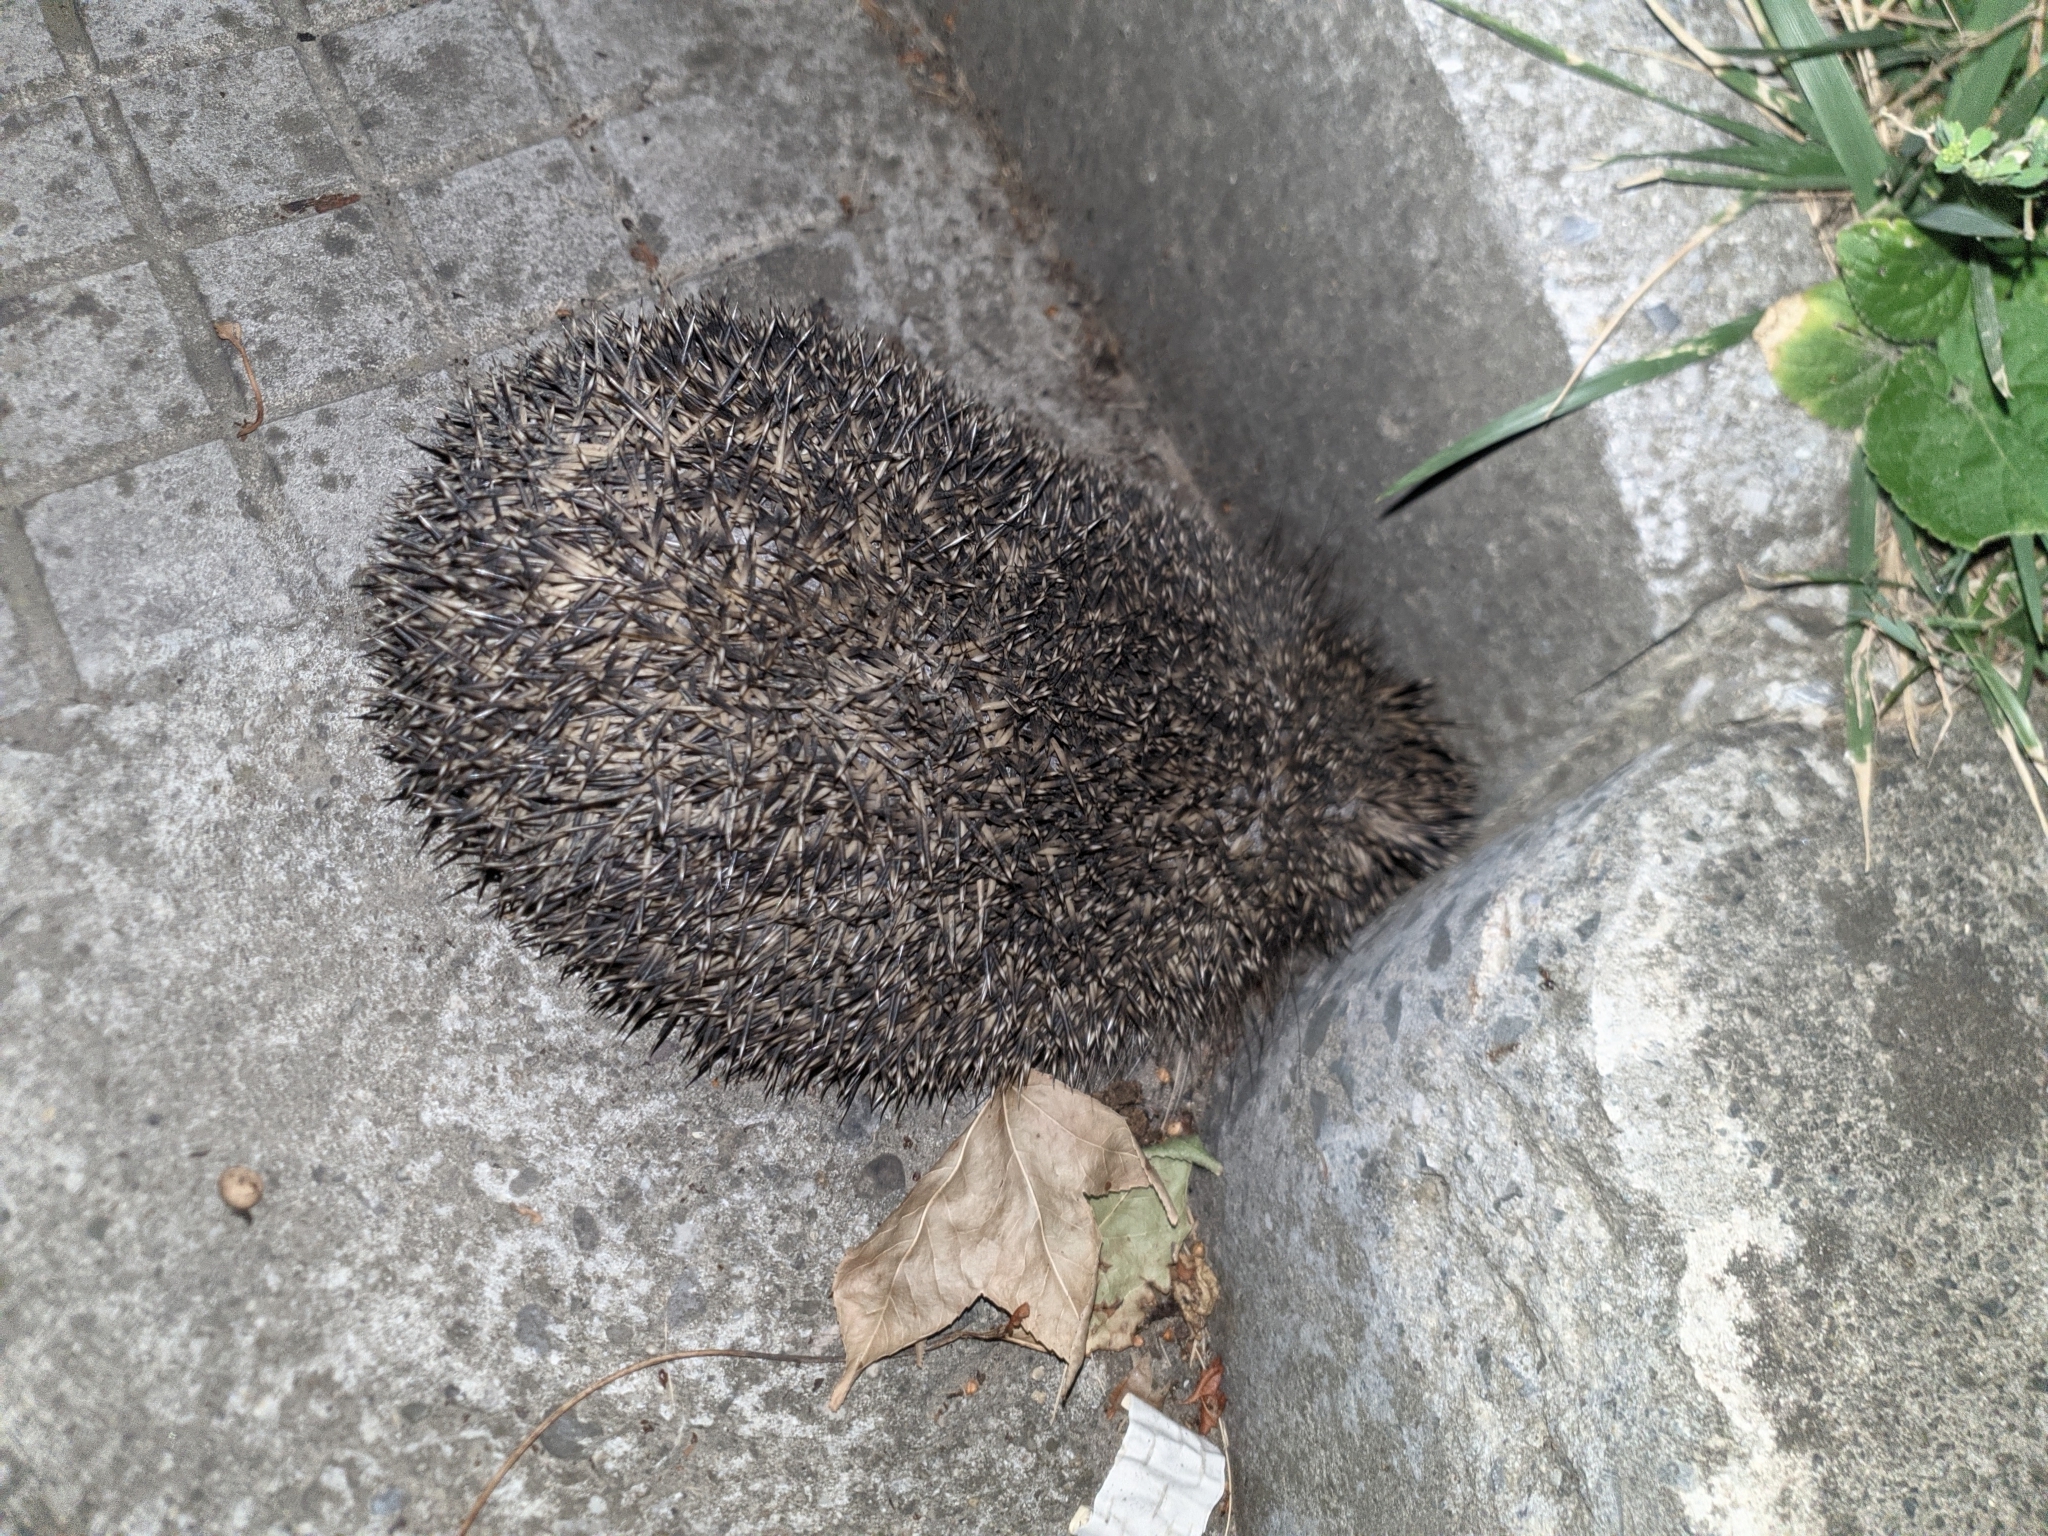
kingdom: Animalia
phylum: Chordata
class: Mammalia
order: Erinaceomorpha
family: Erinaceidae
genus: Erinaceus
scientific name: Erinaceus roumanicus
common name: Northern white-breasted hedgehog
